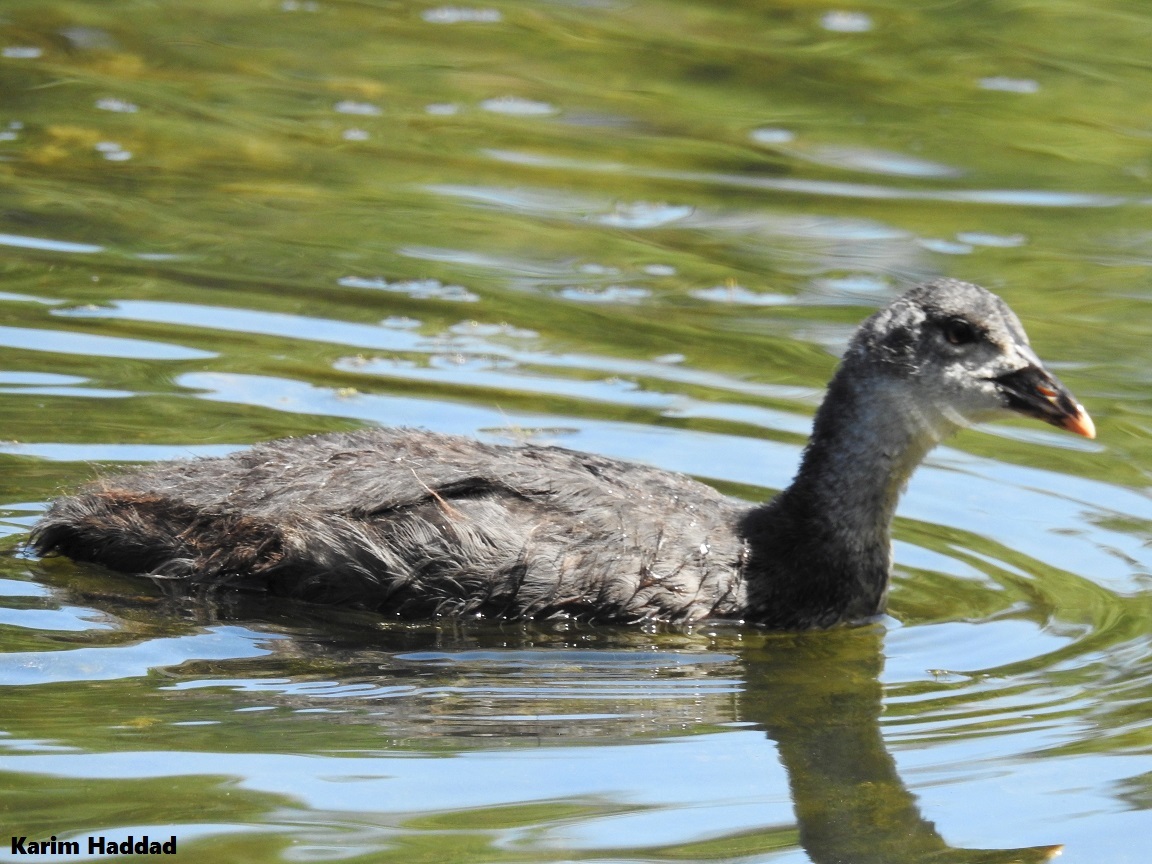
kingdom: Animalia
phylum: Chordata
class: Aves
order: Gruiformes
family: Rallidae
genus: Fulica
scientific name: Fulica atra
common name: Eurasian coot
